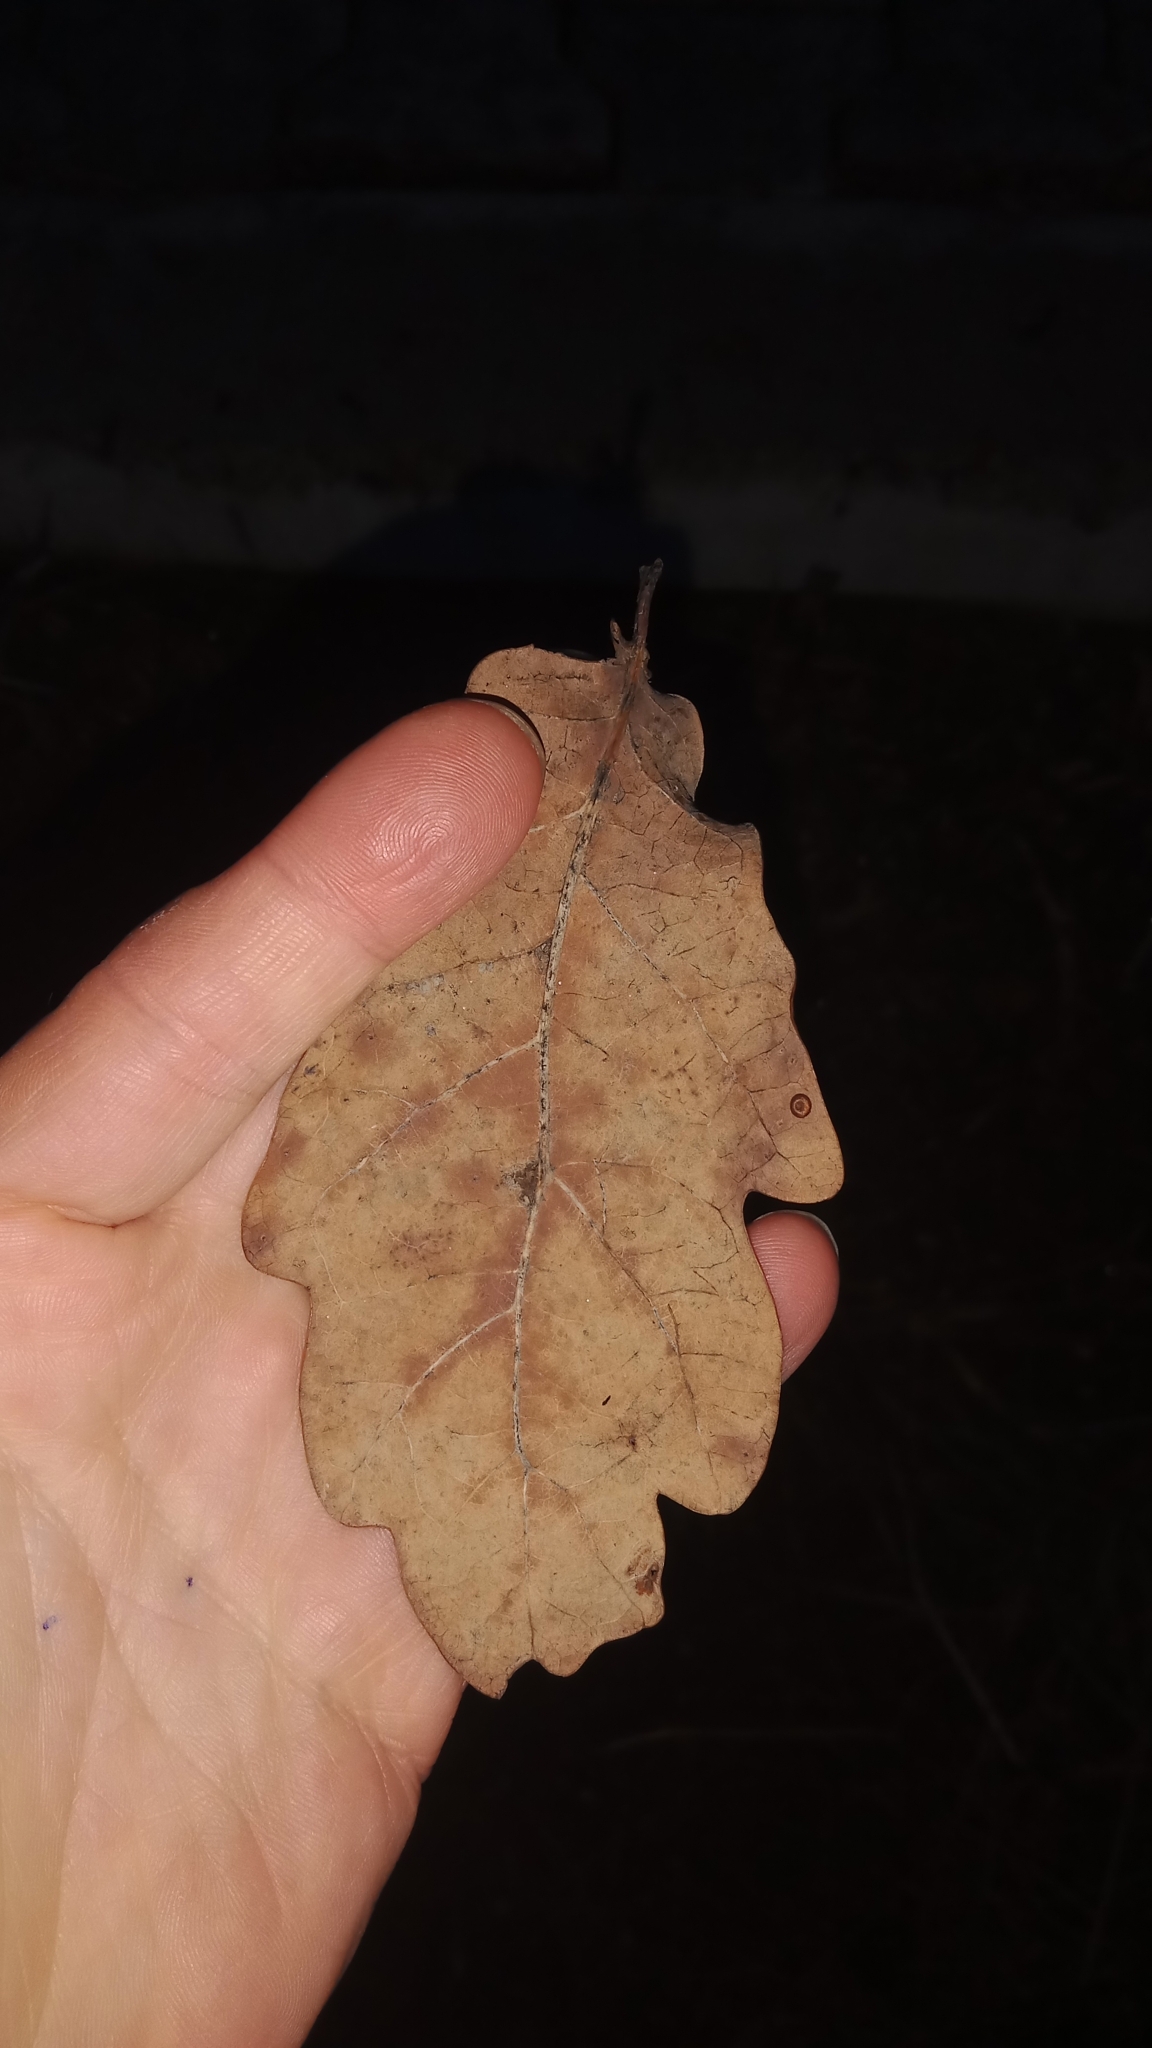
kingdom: Plantae
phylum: Tracheophyta
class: Magnoliopsida
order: Fagales
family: Fagaceae
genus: Quercus
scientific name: Quercus robur
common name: Pedunculate oak
